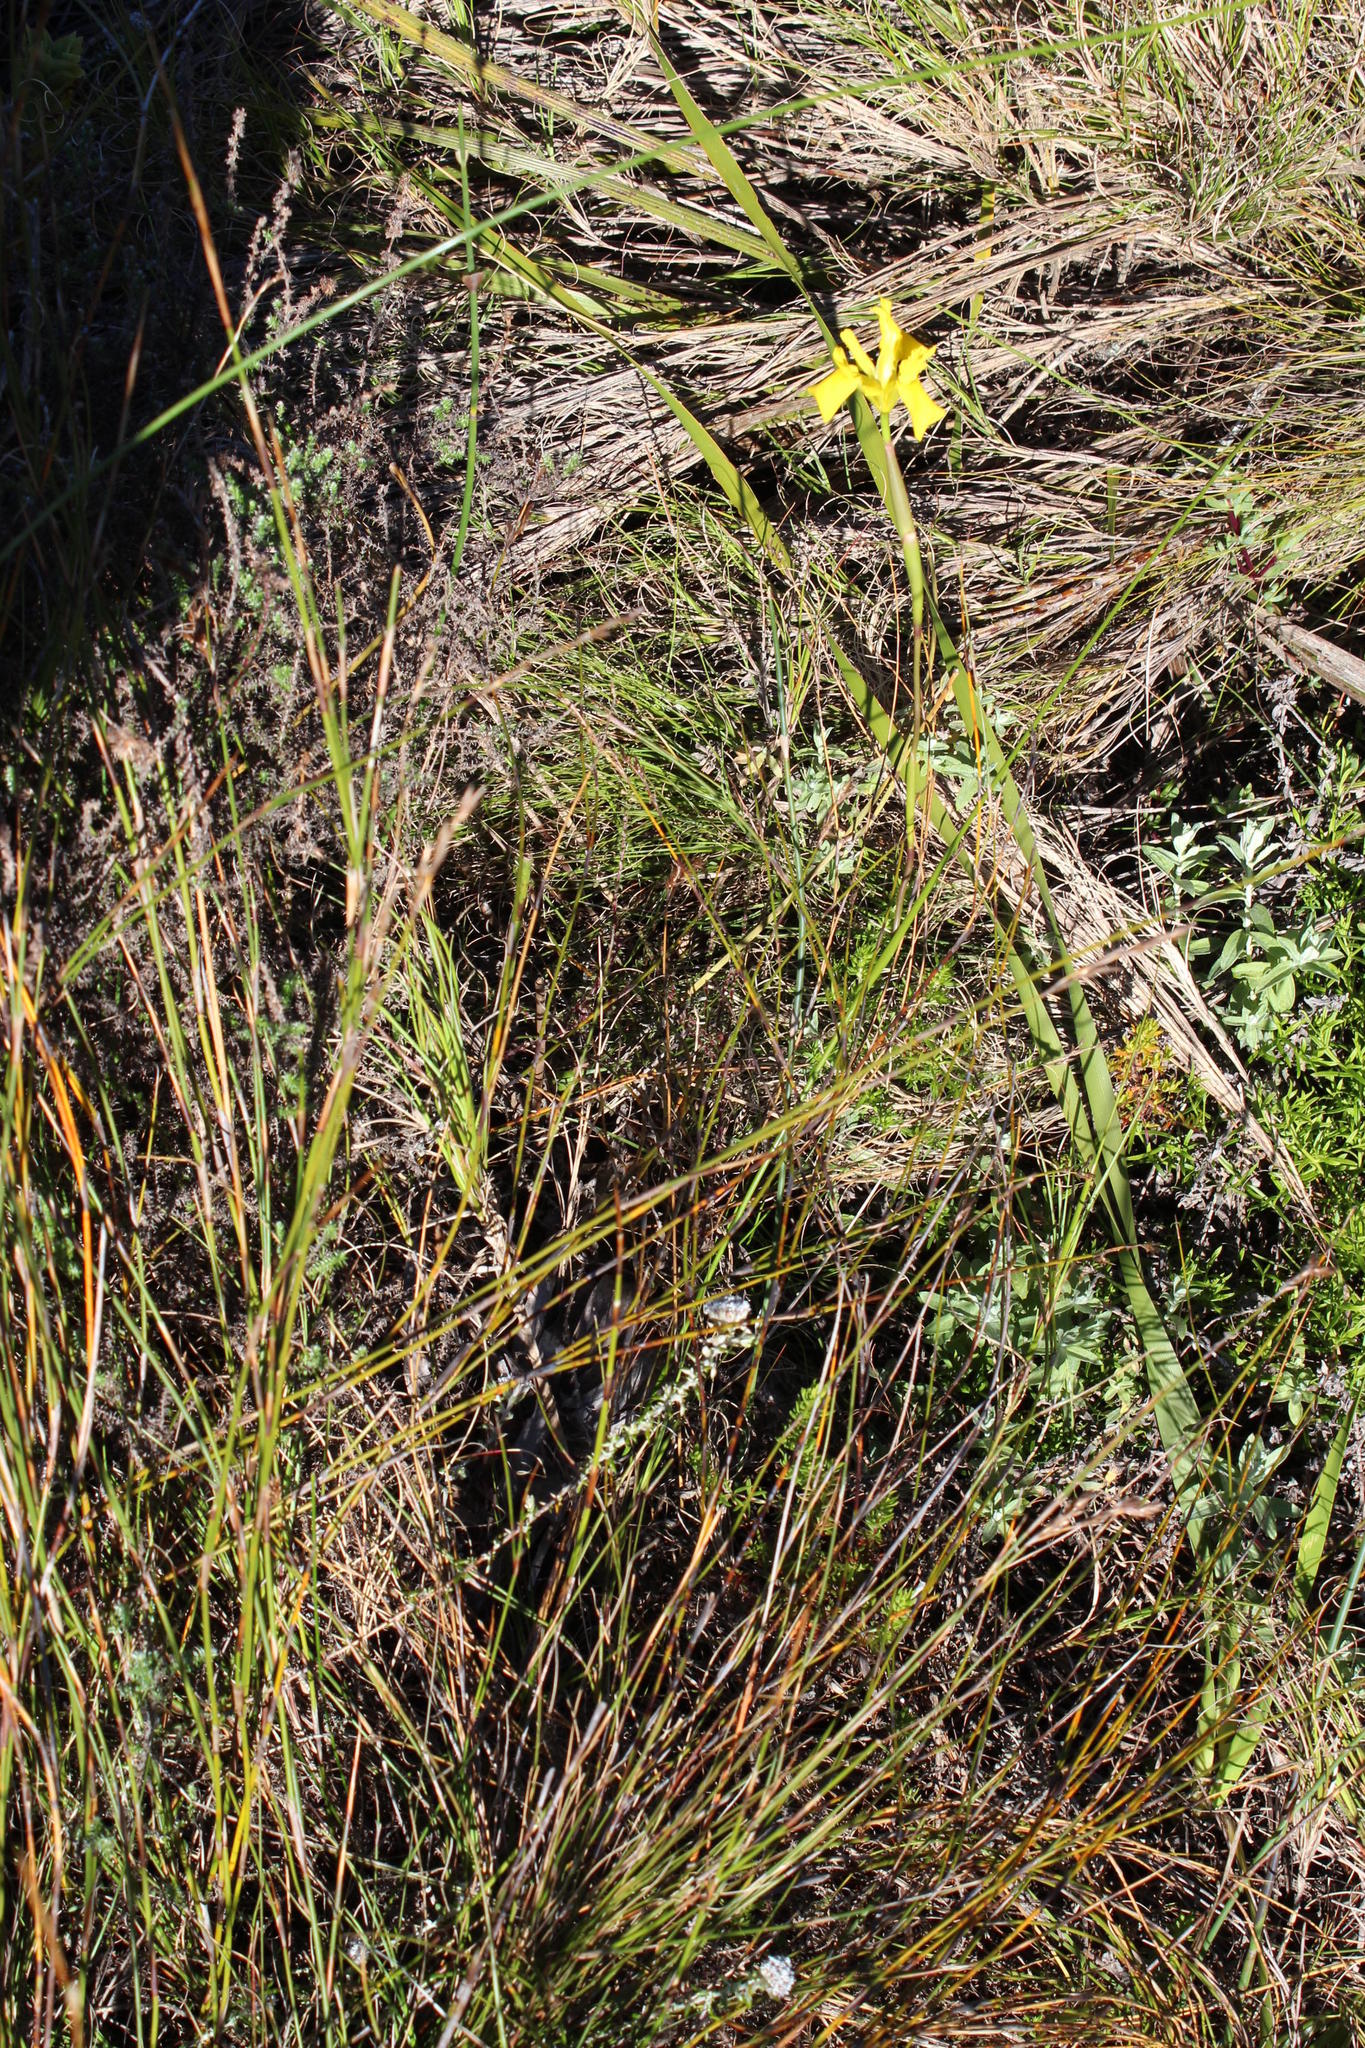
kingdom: Plantae
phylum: Tracheophyta
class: Liliopsida
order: Asparagales
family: Iridaceae
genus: Moraea
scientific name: Moraea neglecta
